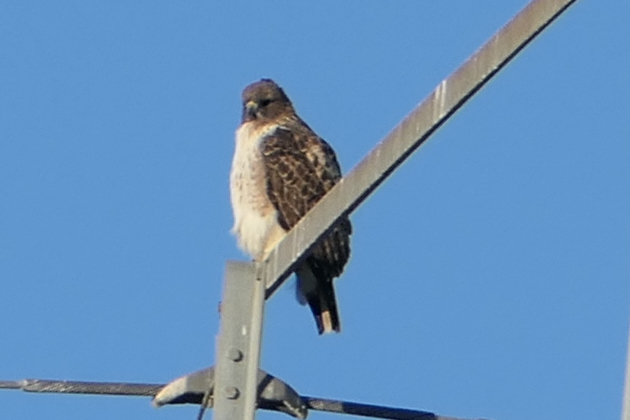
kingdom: Animalia
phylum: Chordata
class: Aves
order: Accipitriformes
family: Accipitridae
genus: Buteo
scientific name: Buteo jamaicensis
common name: Red-tailed hawk
